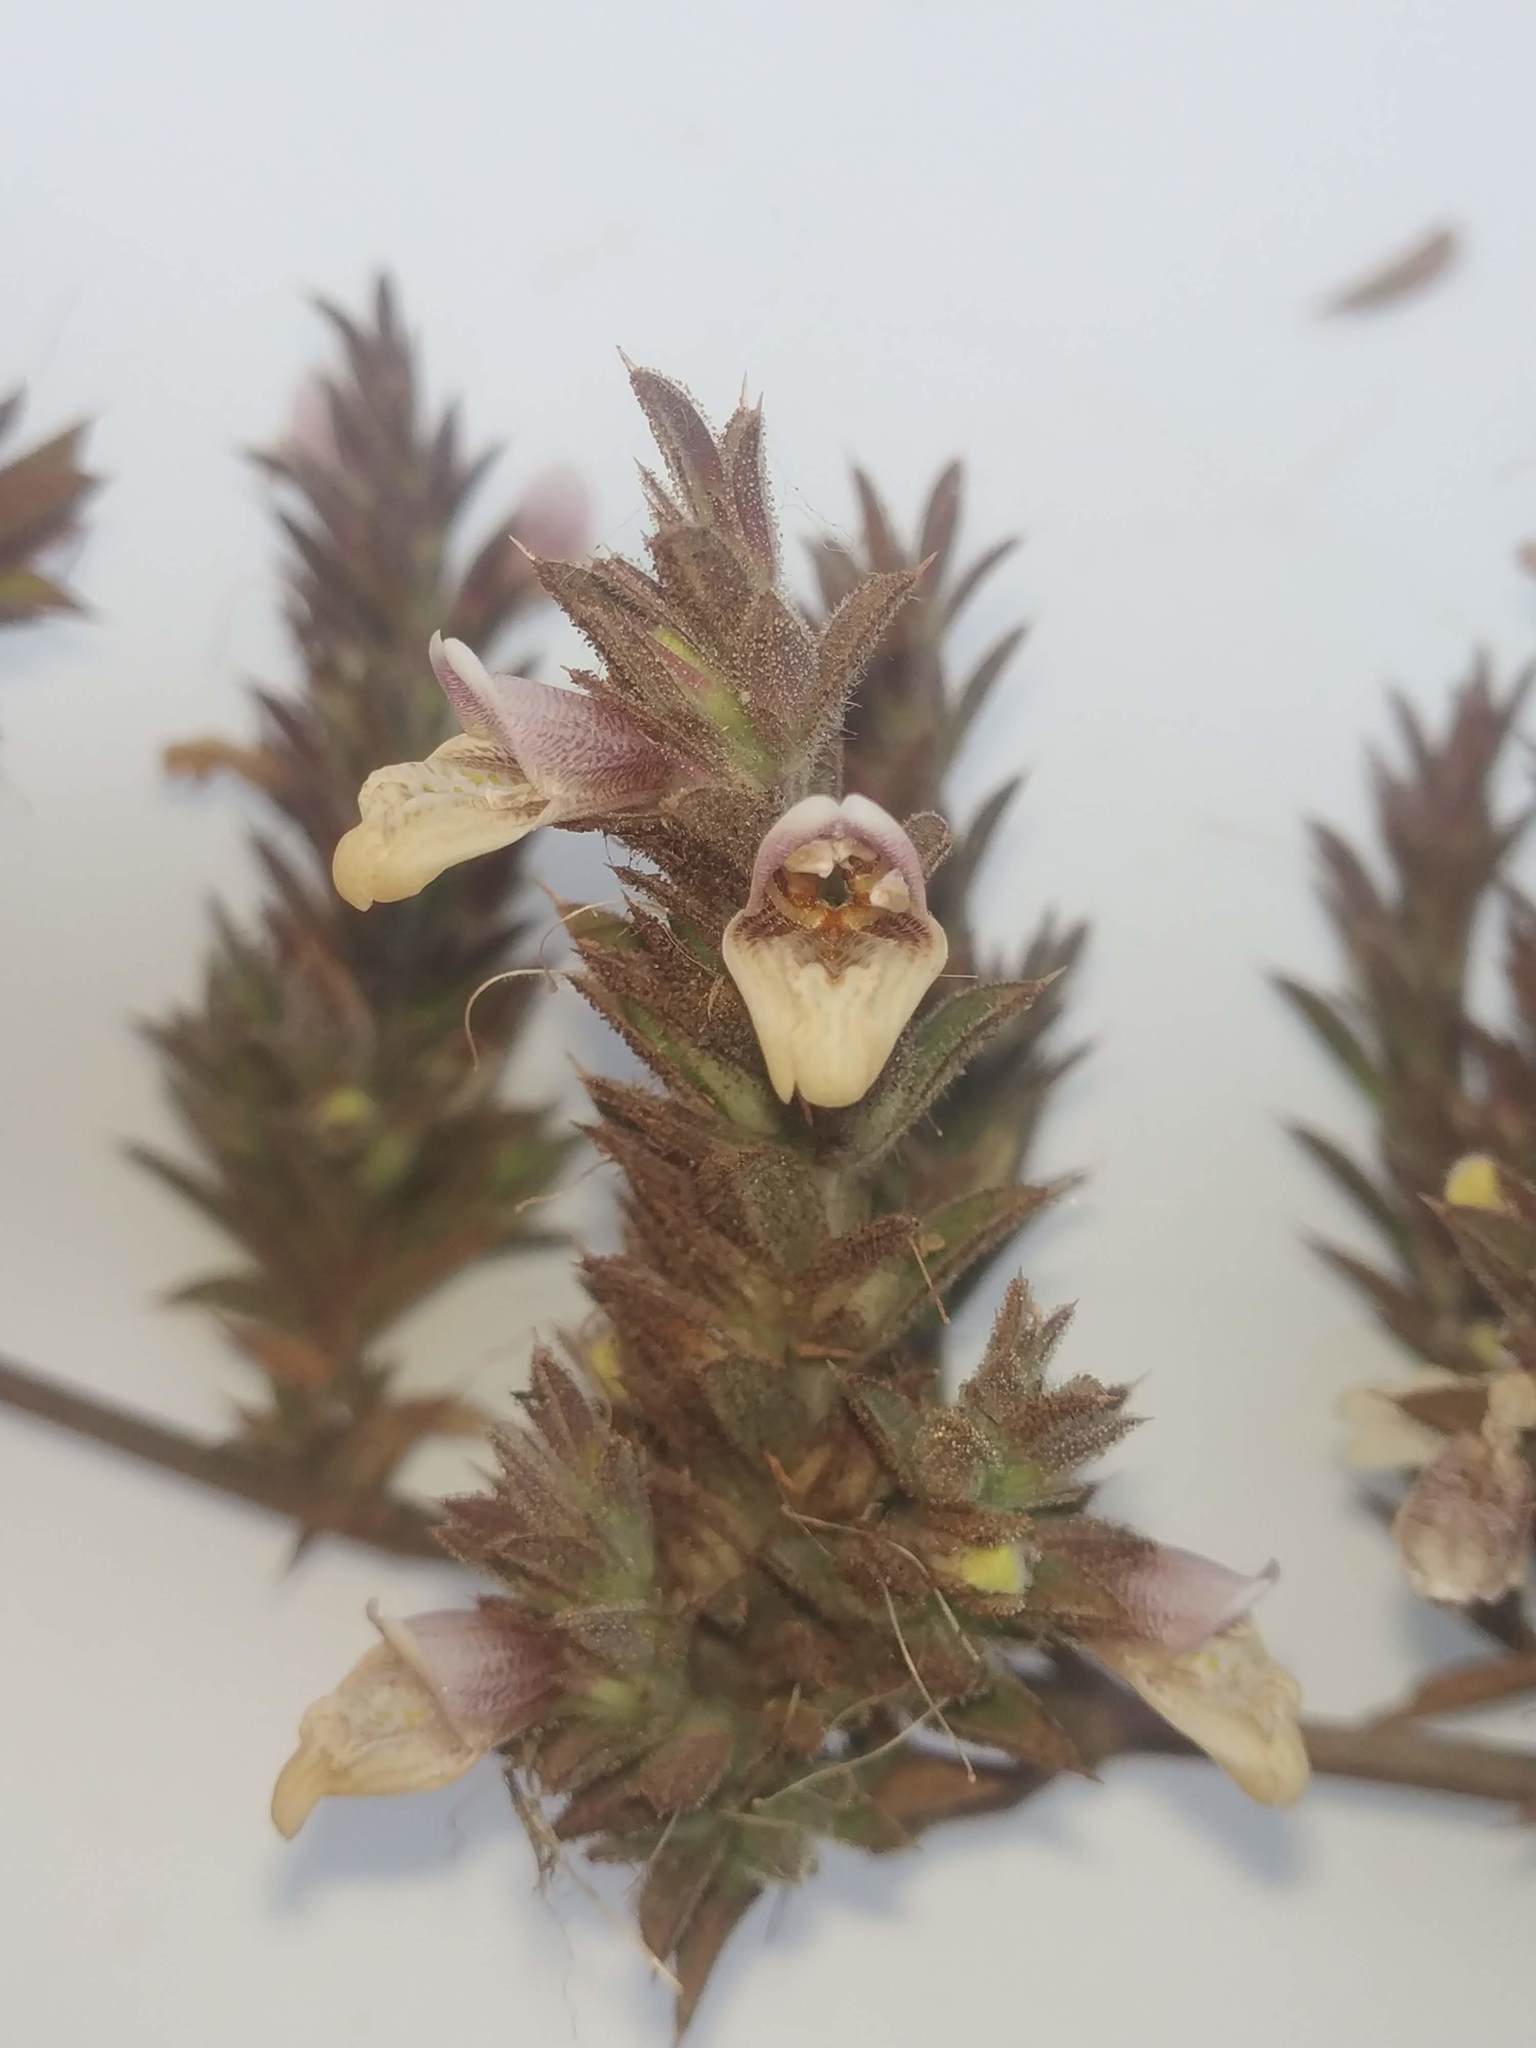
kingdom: Plantae
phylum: Tracheophyta
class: Magnoliopsida
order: Lamiales
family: Acanthaceae
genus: Lepidagathis
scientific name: Lepidagathis cuspidata
